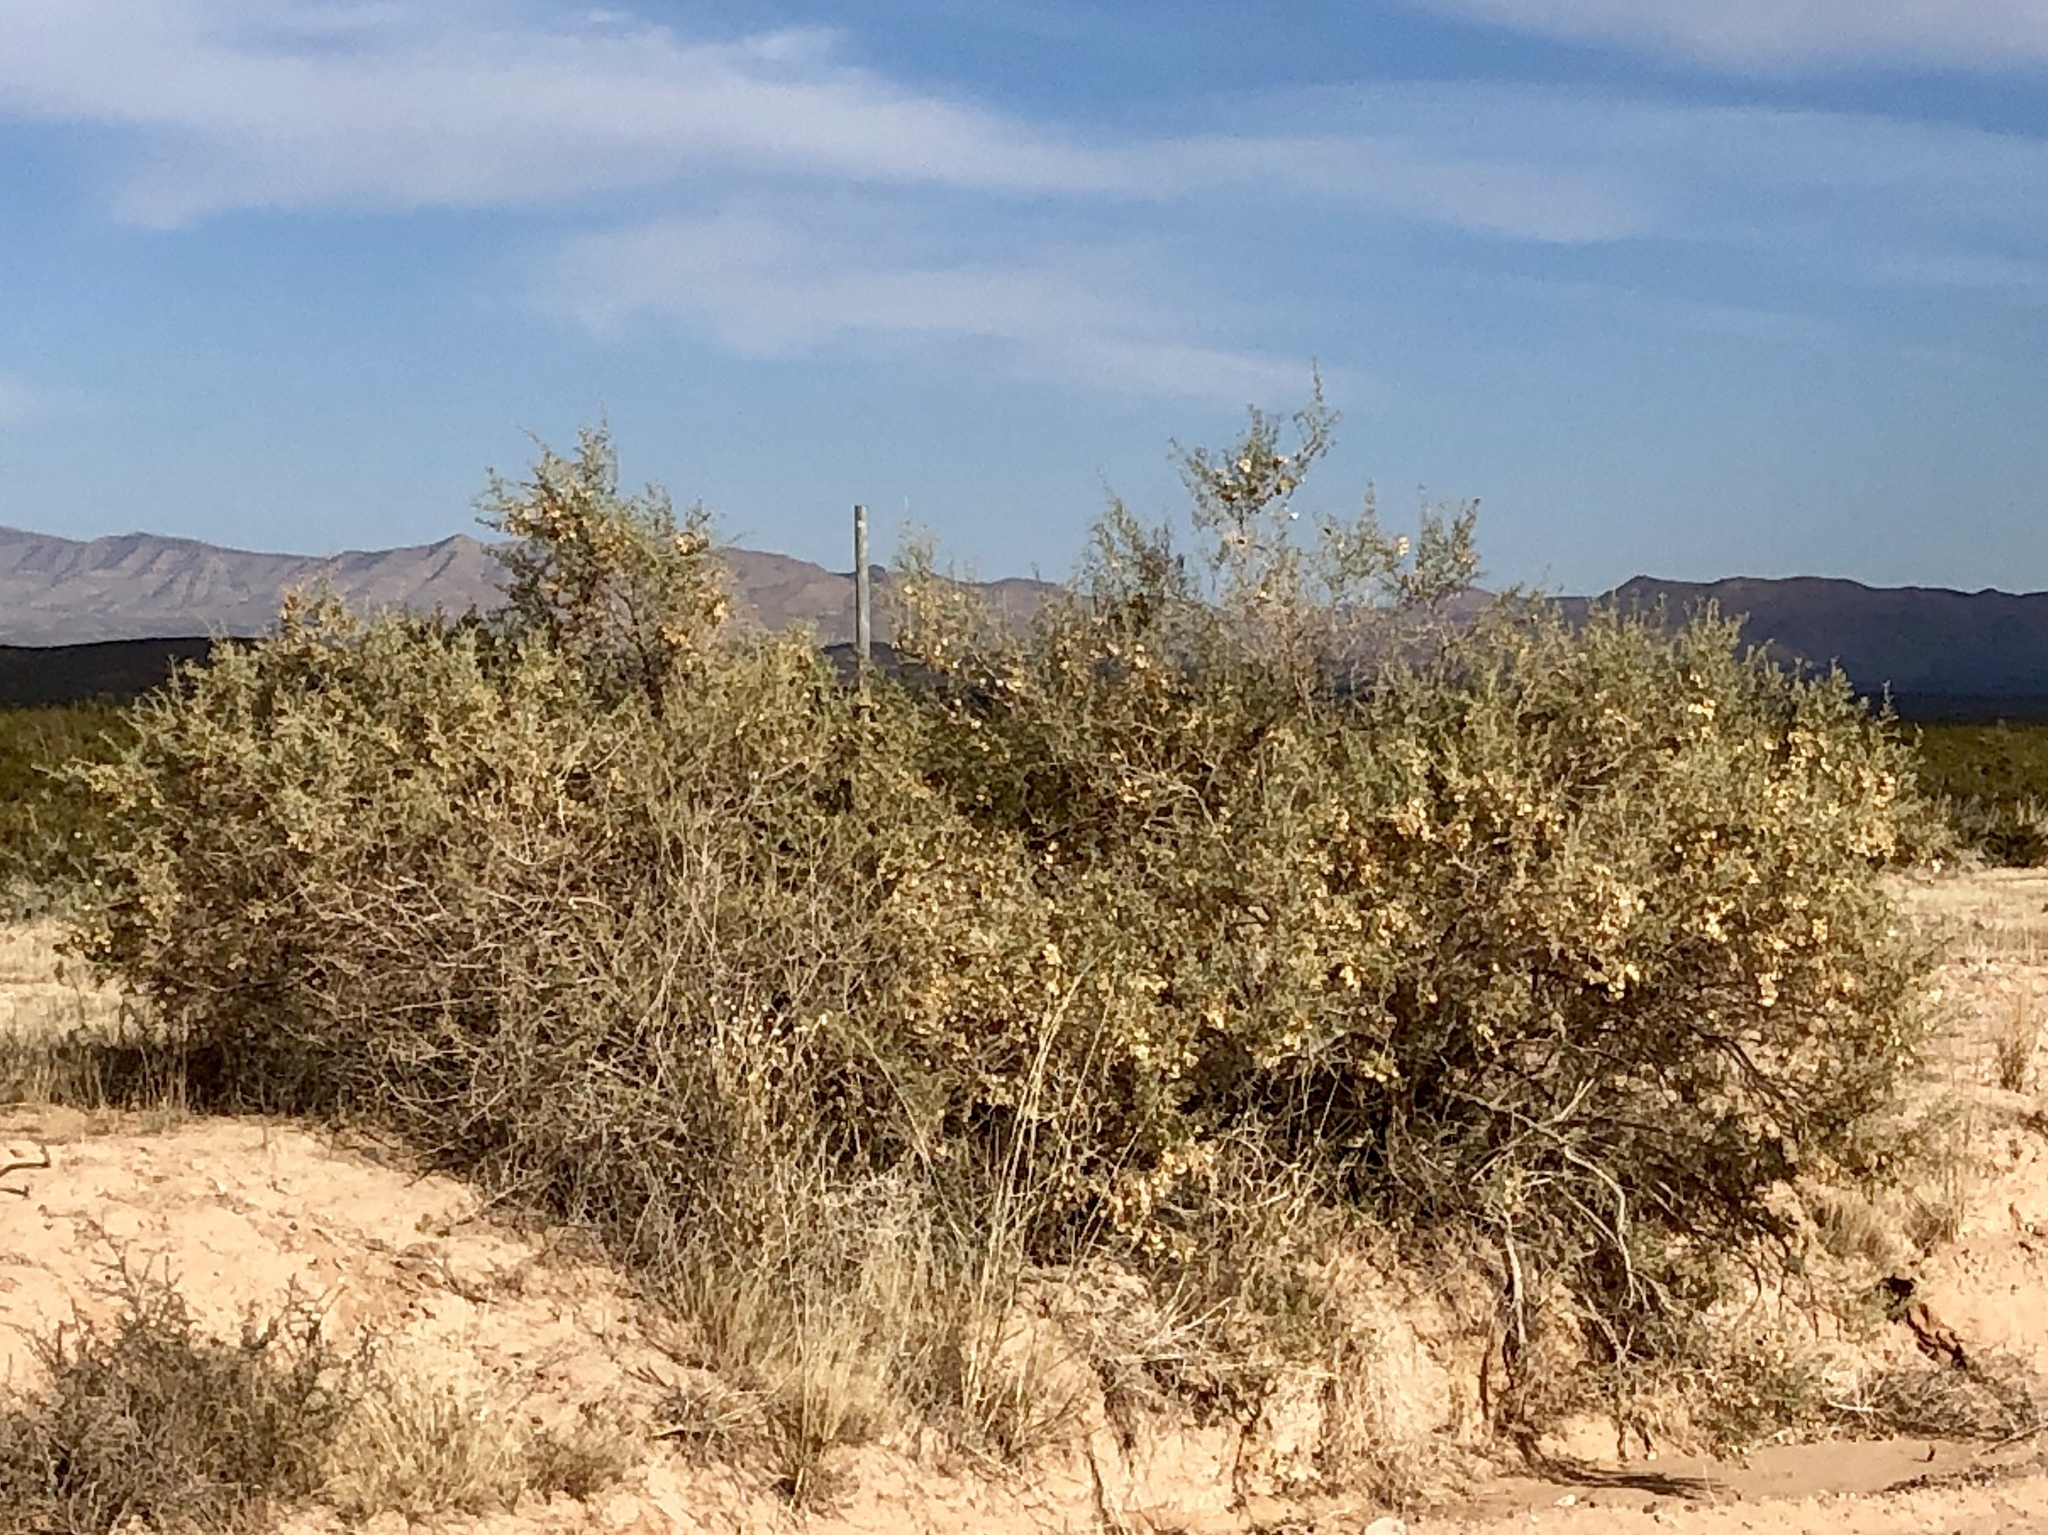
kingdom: Plantae
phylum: Tracheophyta
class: Magnoliopsida
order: Caryophyllales
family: Amaranthaceae
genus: Atriplex
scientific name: Atriplex canescens
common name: Four-wing saltbush
